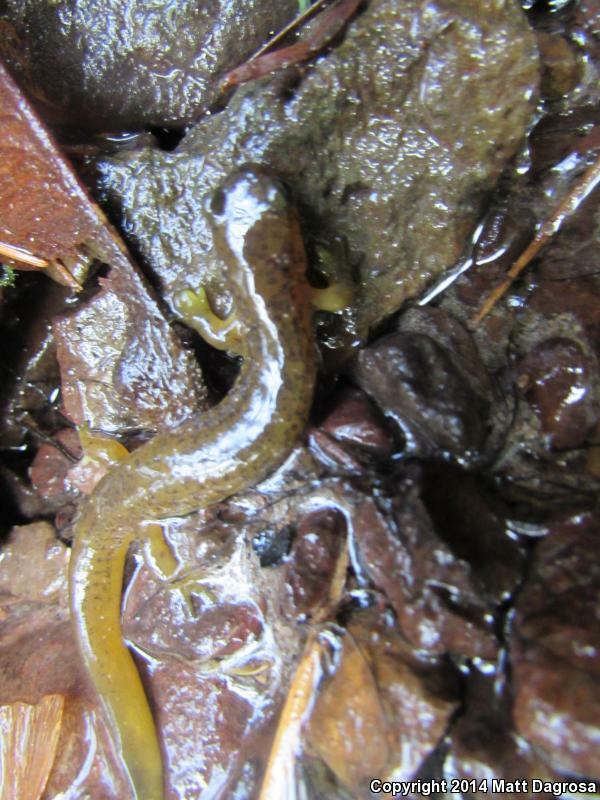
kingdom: Animalia
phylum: Chordata
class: Amphibia
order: Caudata
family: Rhyacotritonidae
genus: Rhyacotriton
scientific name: Rhyacotriton cascadae
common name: Cascade torrent salamander
